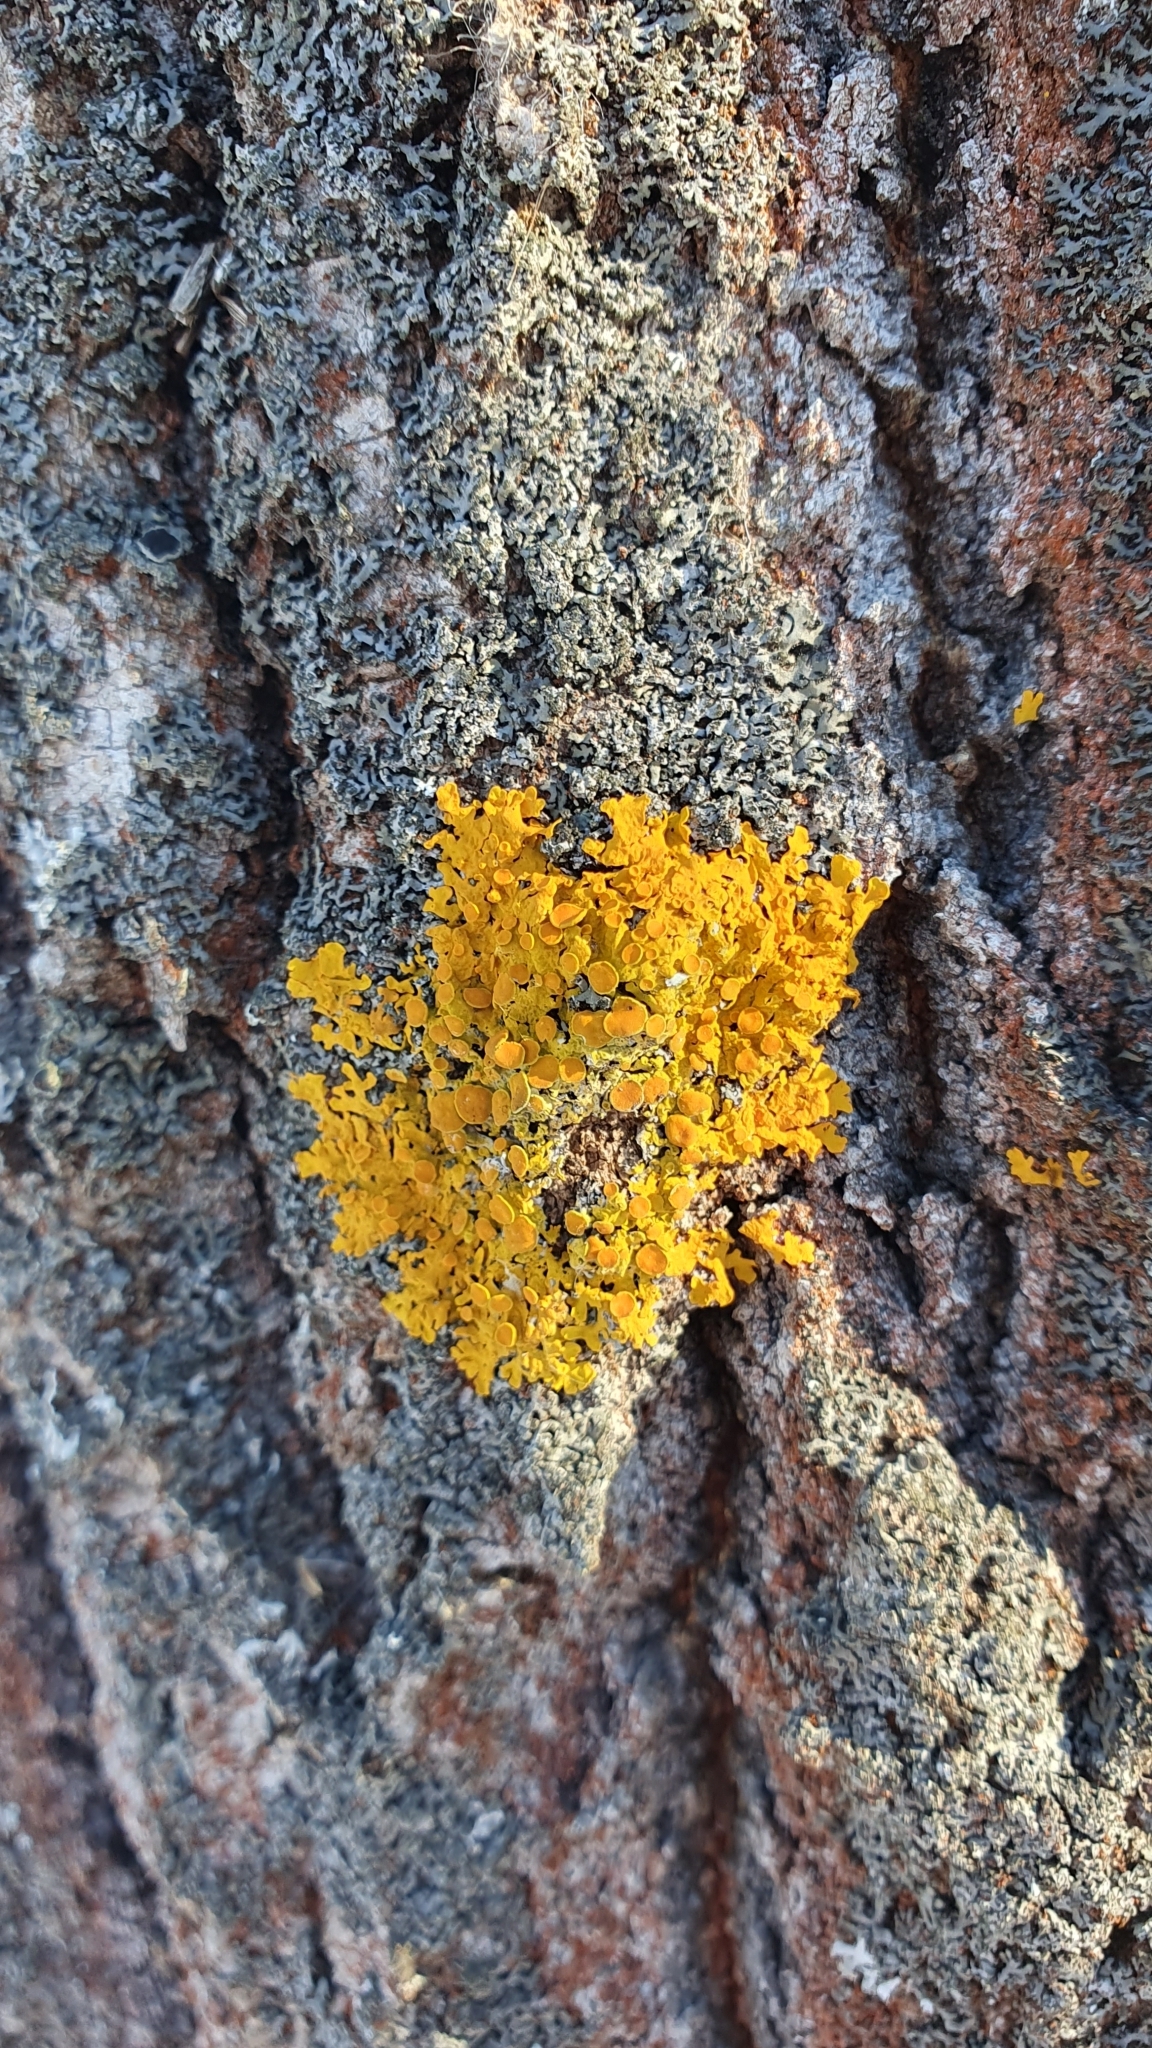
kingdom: Fungi
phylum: Ascomycota
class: Lecanoromycetes
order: Teloschistales
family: Teloschistaceae
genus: Xanthoria
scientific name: Xanthoria parietina
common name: Common orange lichen
